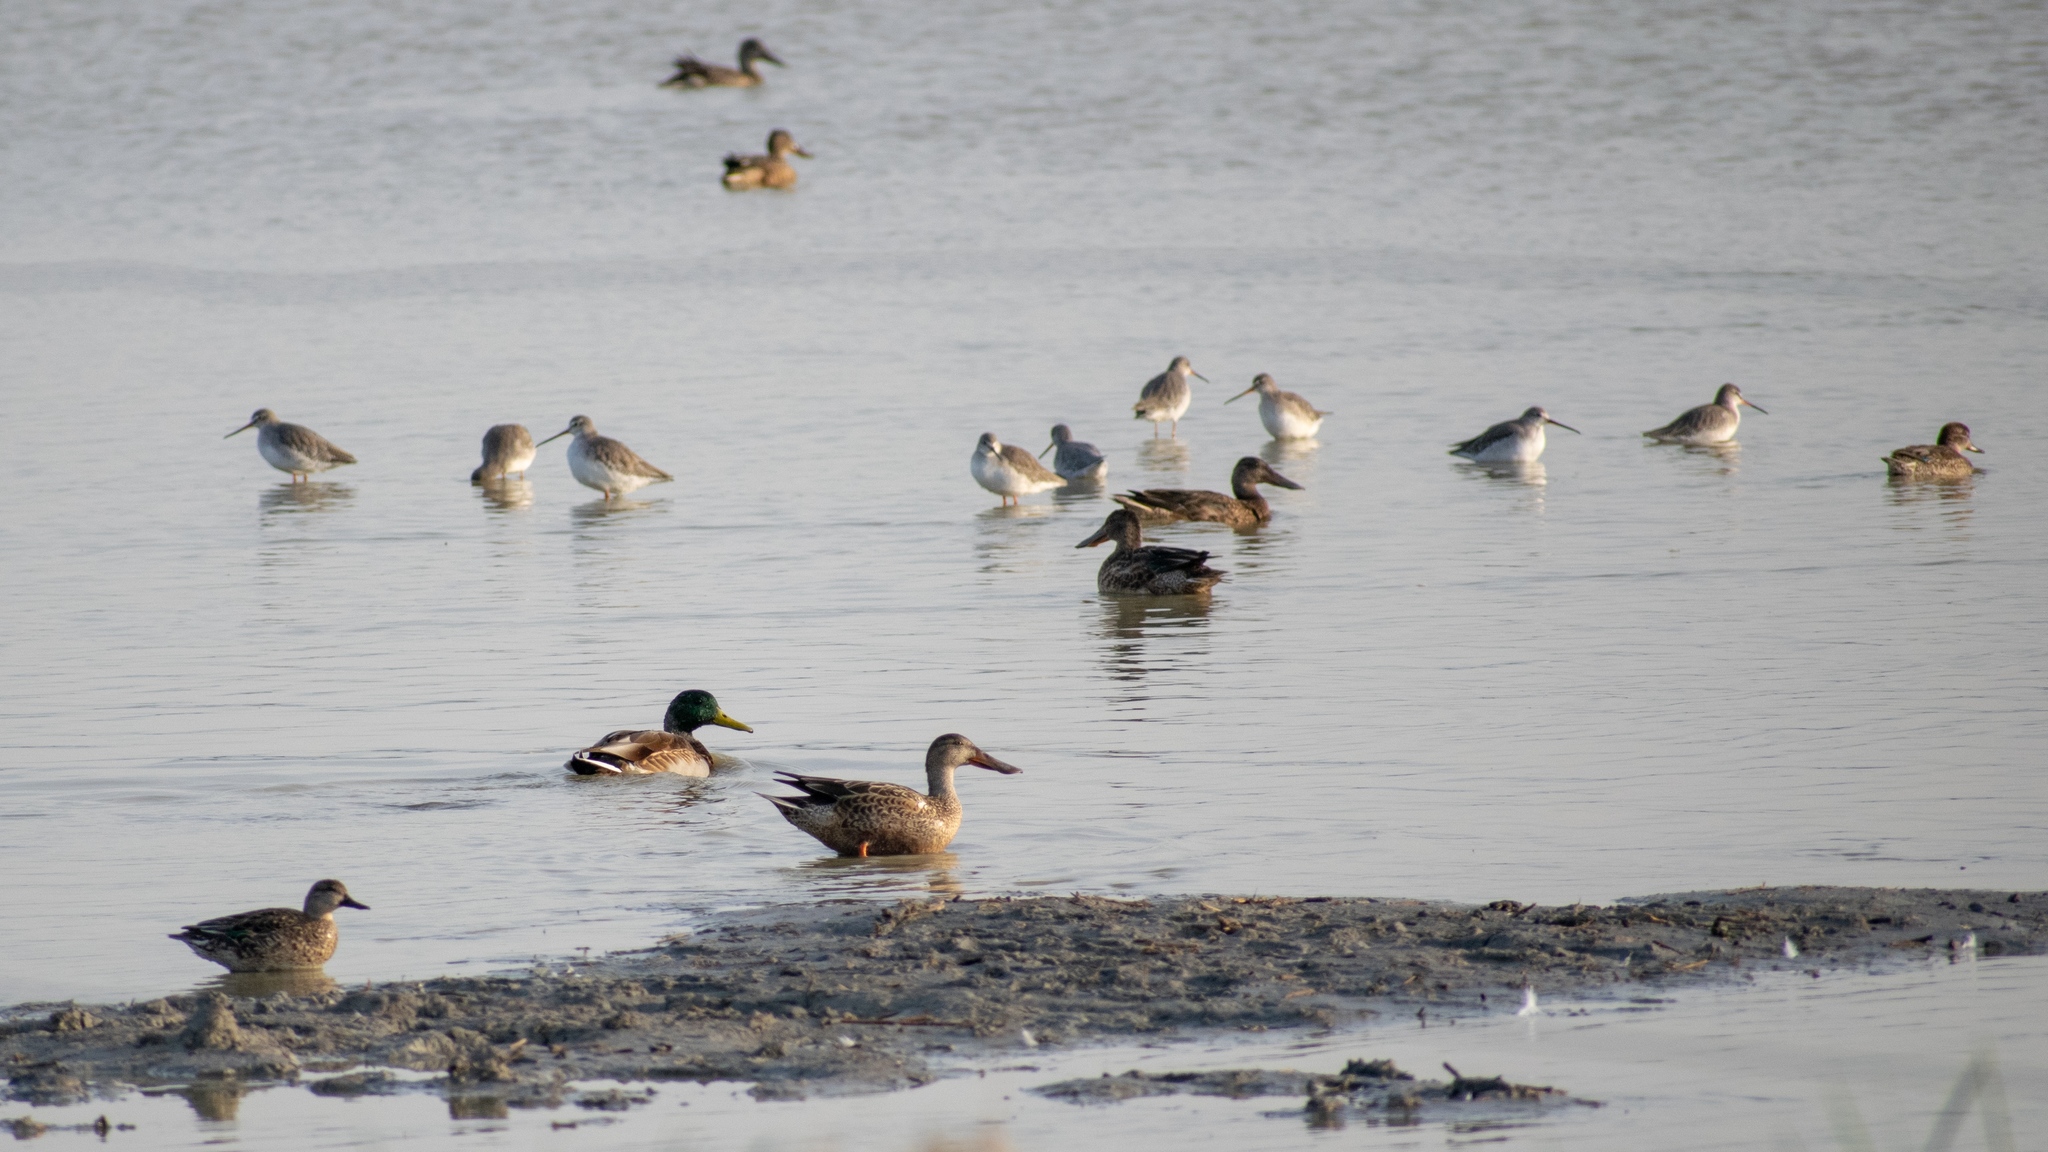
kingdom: Animalia
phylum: Chordata
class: Aves
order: Anseriformes
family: Anatidae
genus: Anas
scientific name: Anas platyrhynchos
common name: Mallard
